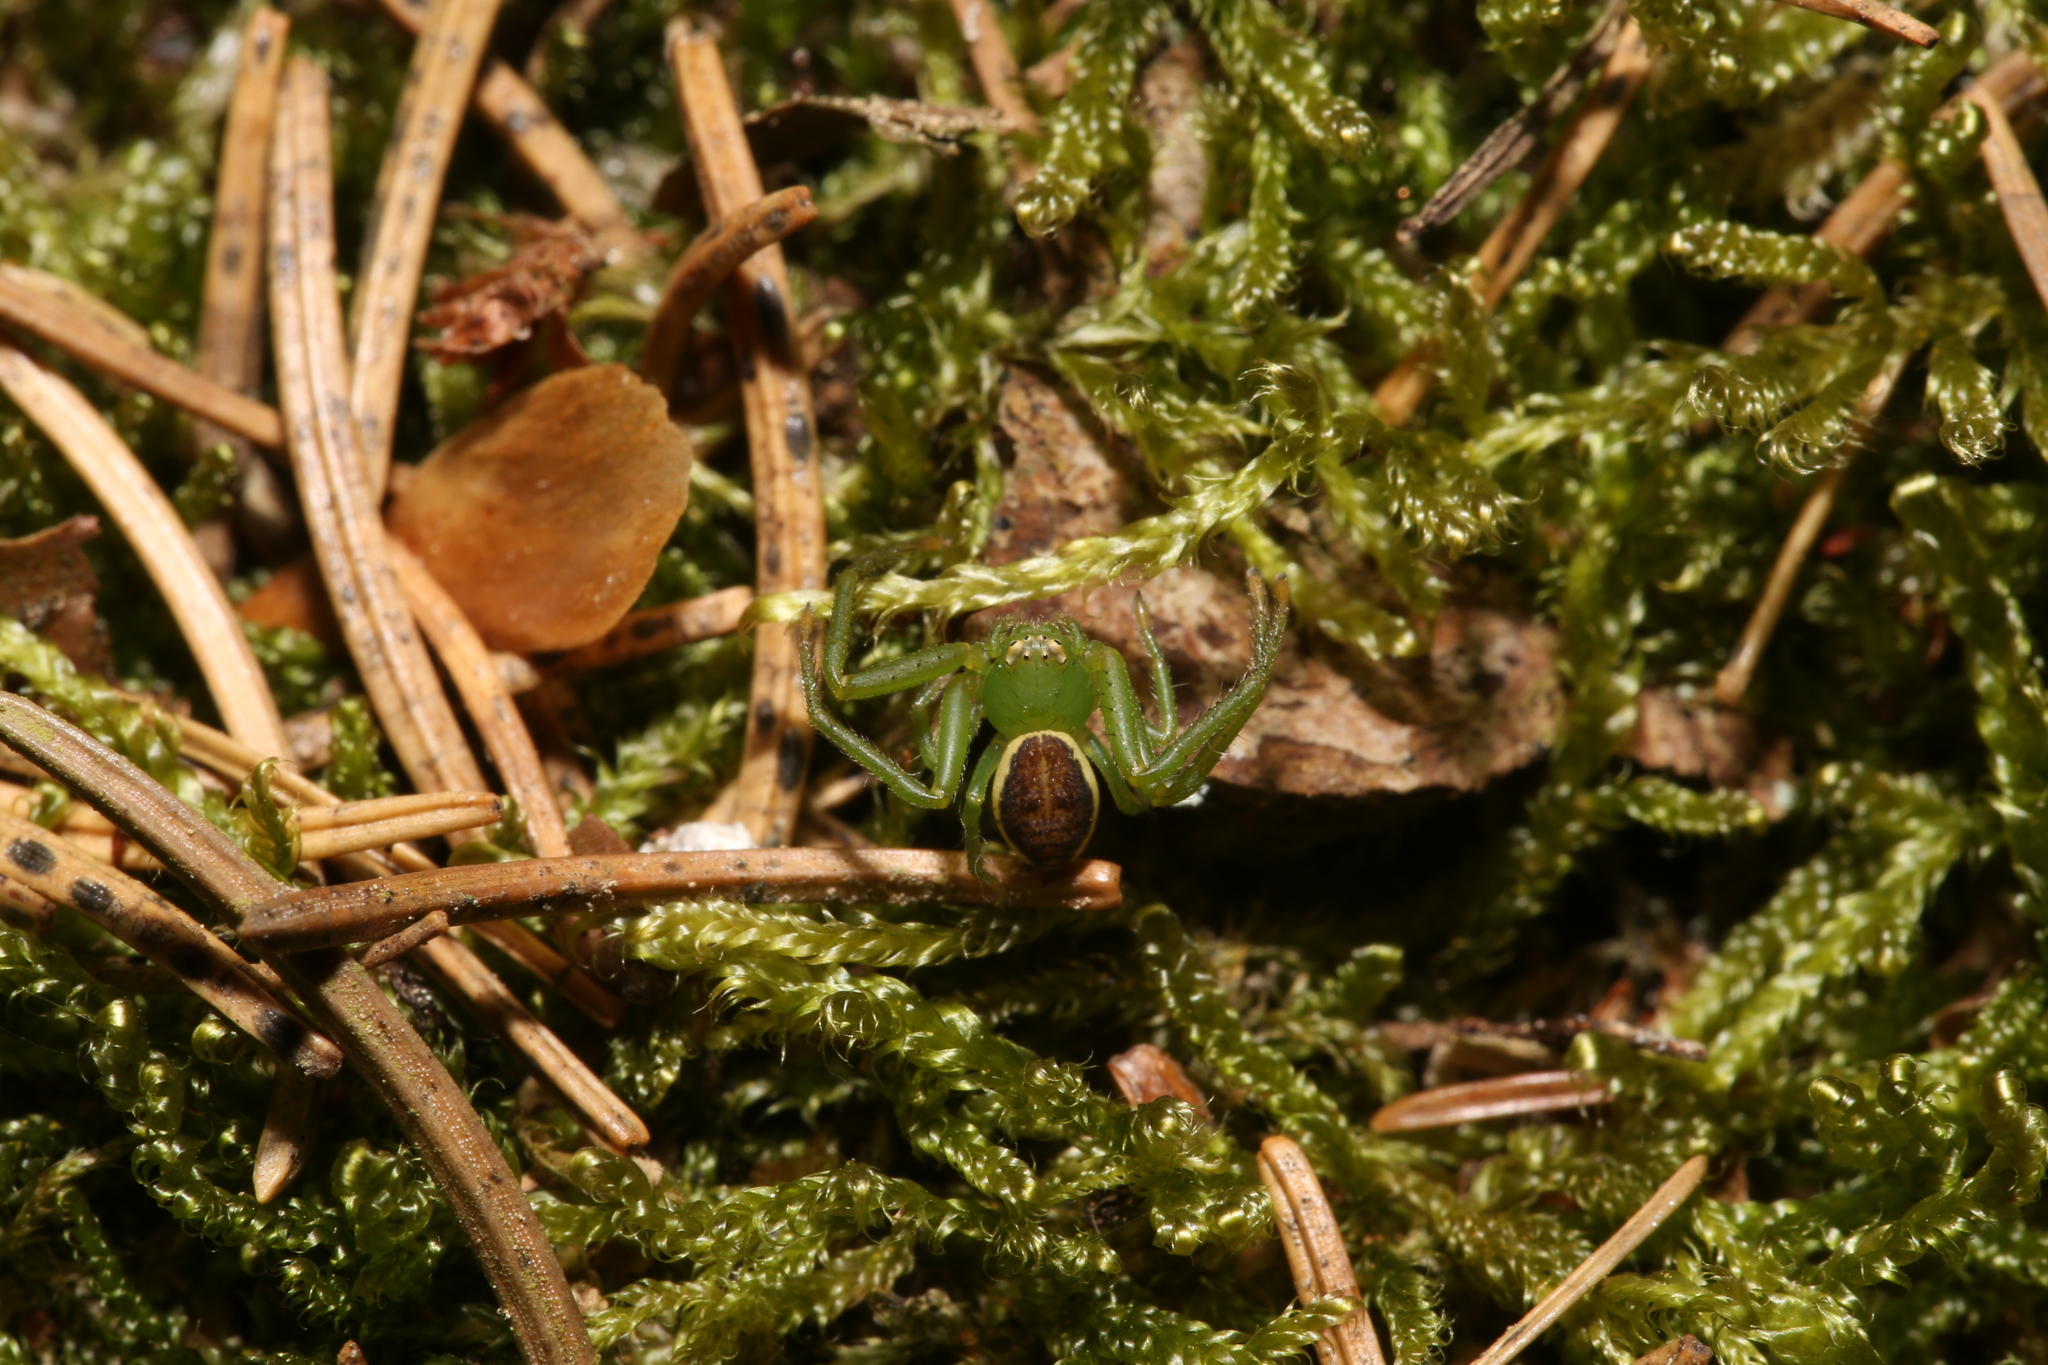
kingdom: Animalia
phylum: Arthropoda
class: Arachnida
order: Araneae
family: Thomisidae
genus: Diaea
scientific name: Diaea dorsata
